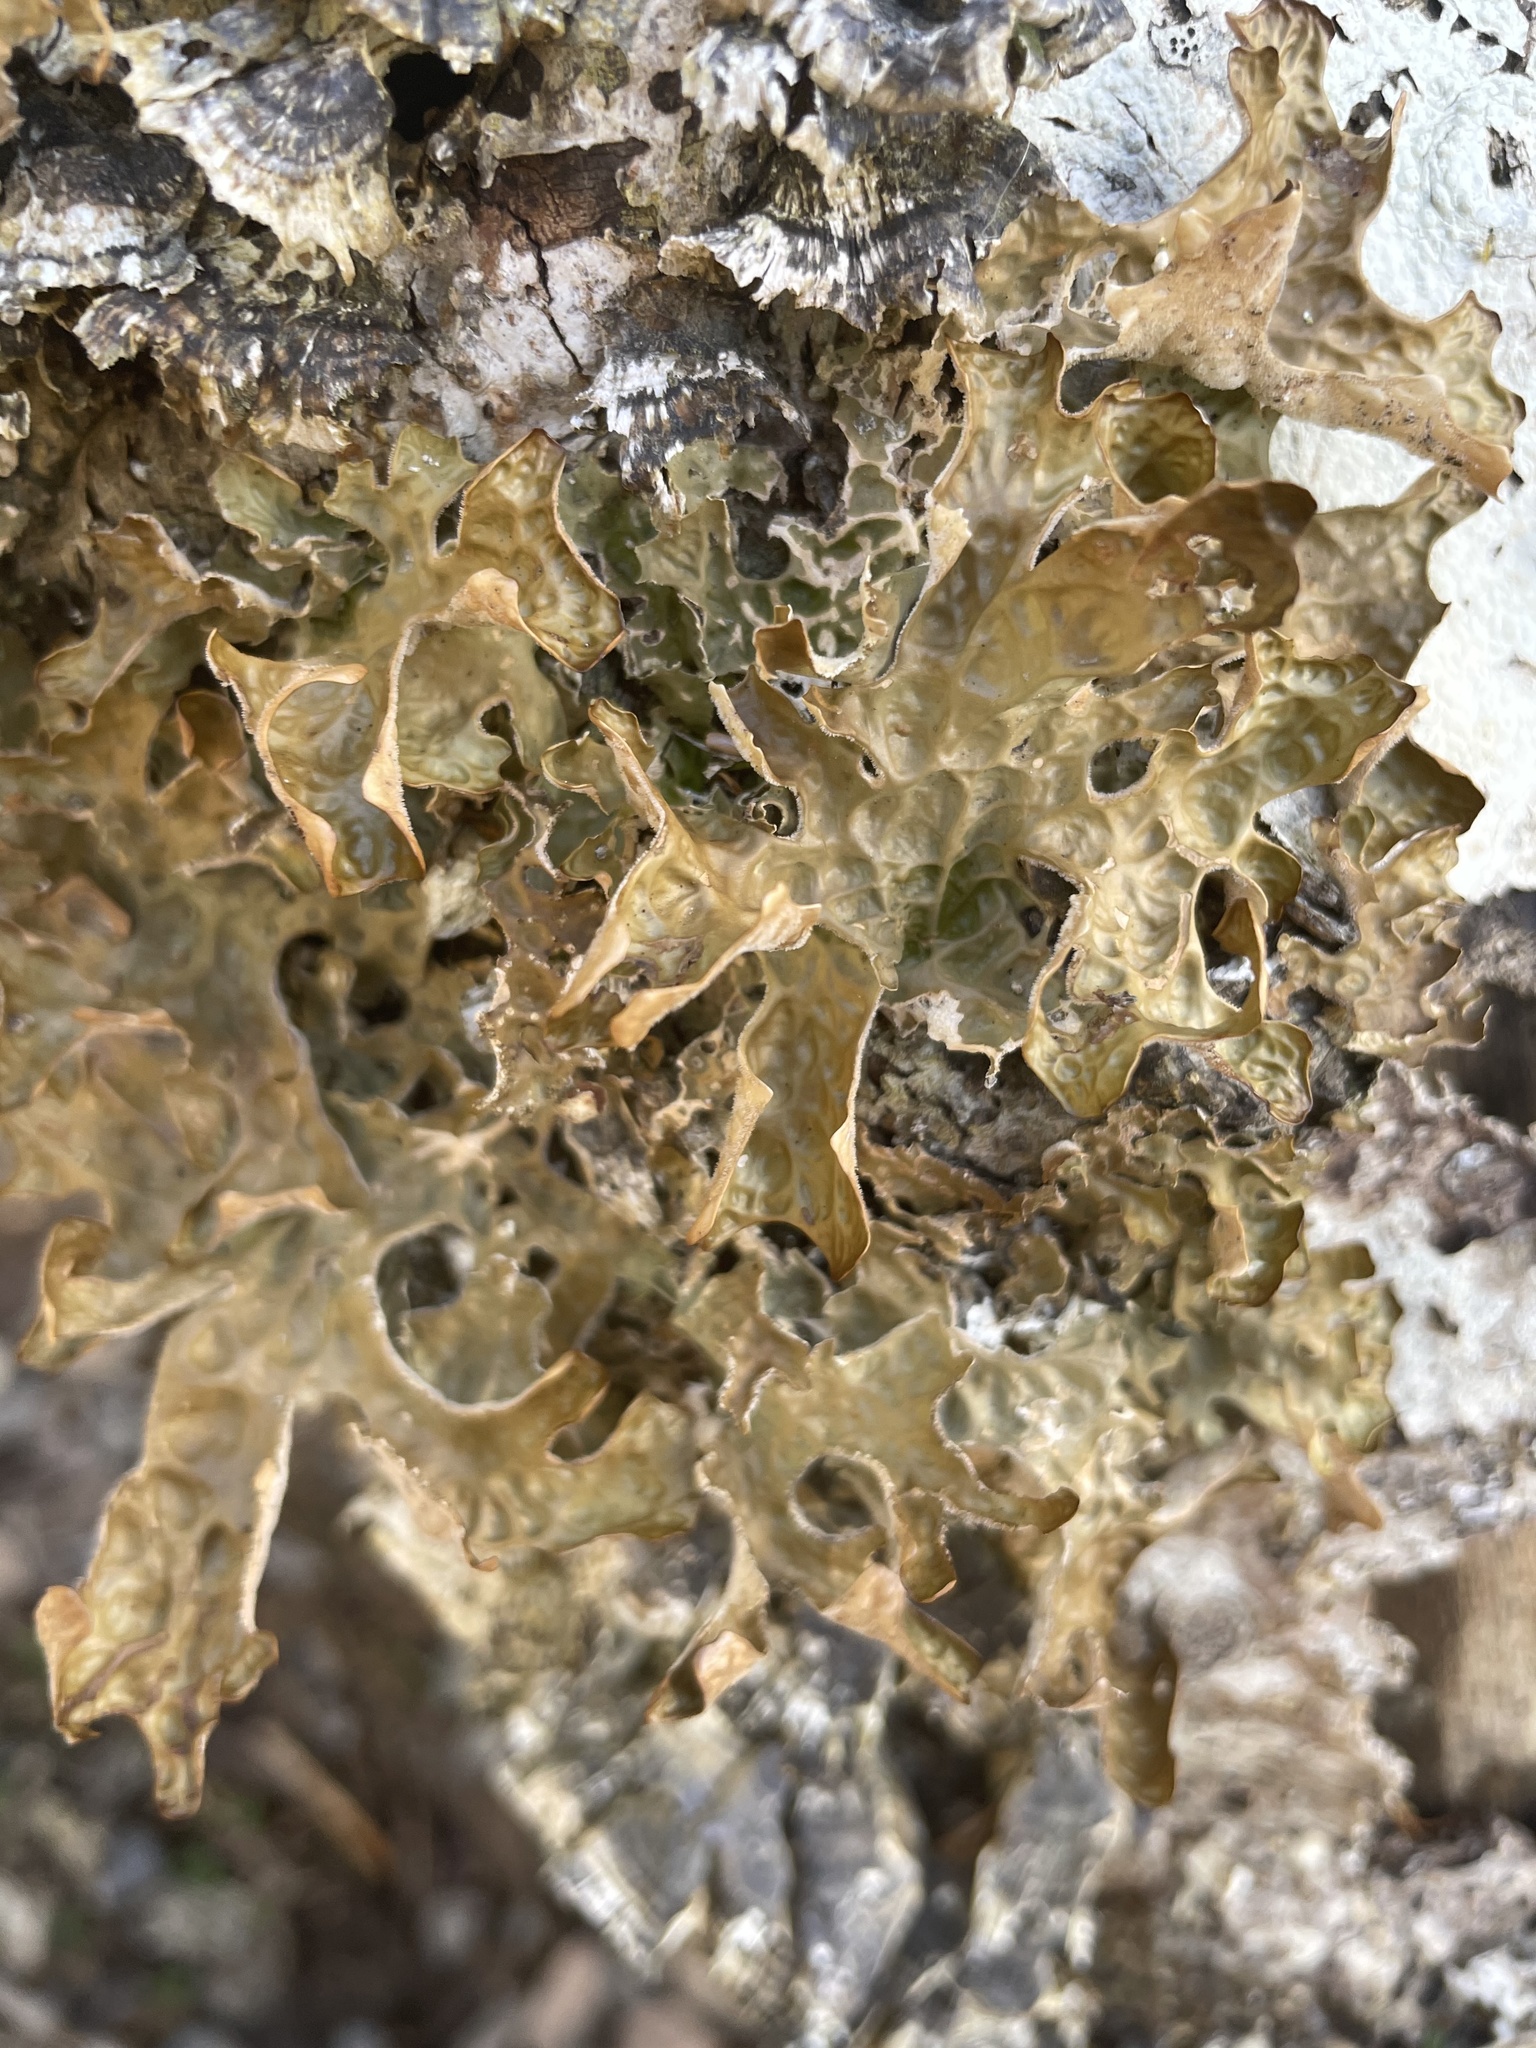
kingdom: Fungi
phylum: Ascomycota
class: Lecanoromycetes
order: Peltigerales
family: Lobariaceae
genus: Lobaria
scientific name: Lobaria pulmonaria
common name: Lungwort
